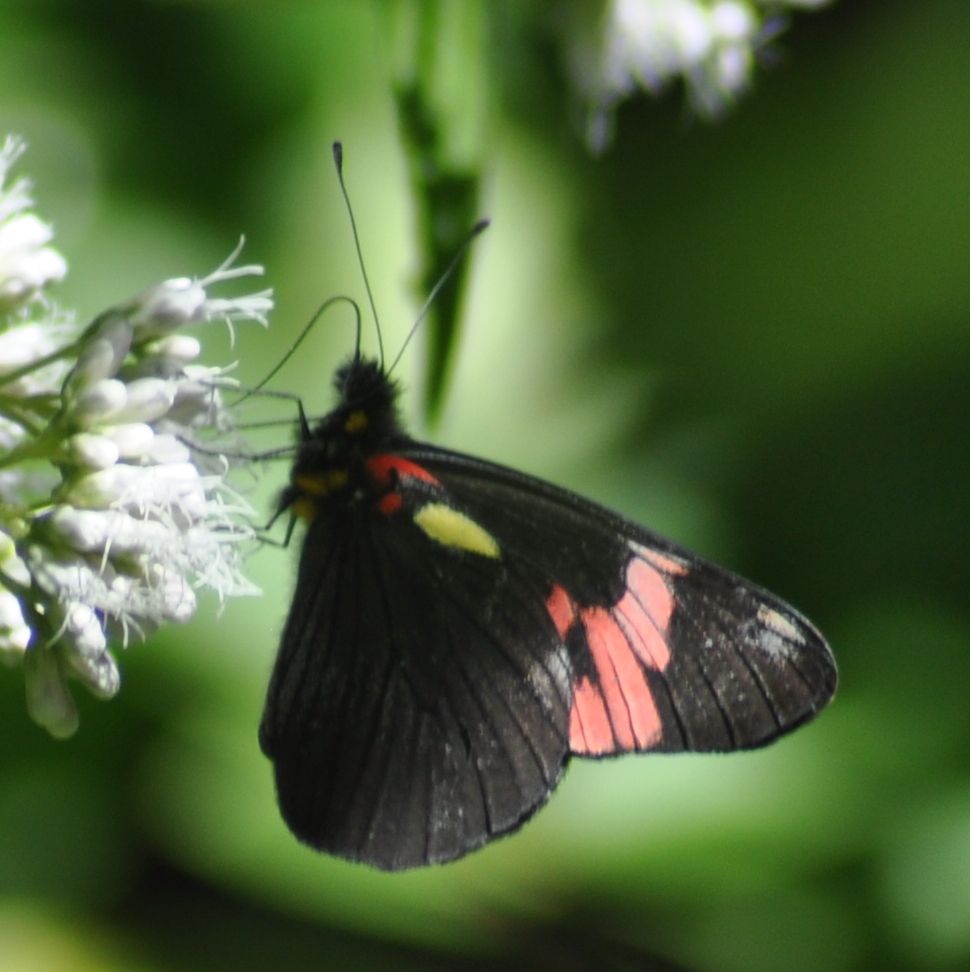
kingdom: Animalia
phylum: Arthropoda
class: Insecta
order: Lepidoptera
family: Pieridae
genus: Pereute
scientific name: Pereute swainsoni
